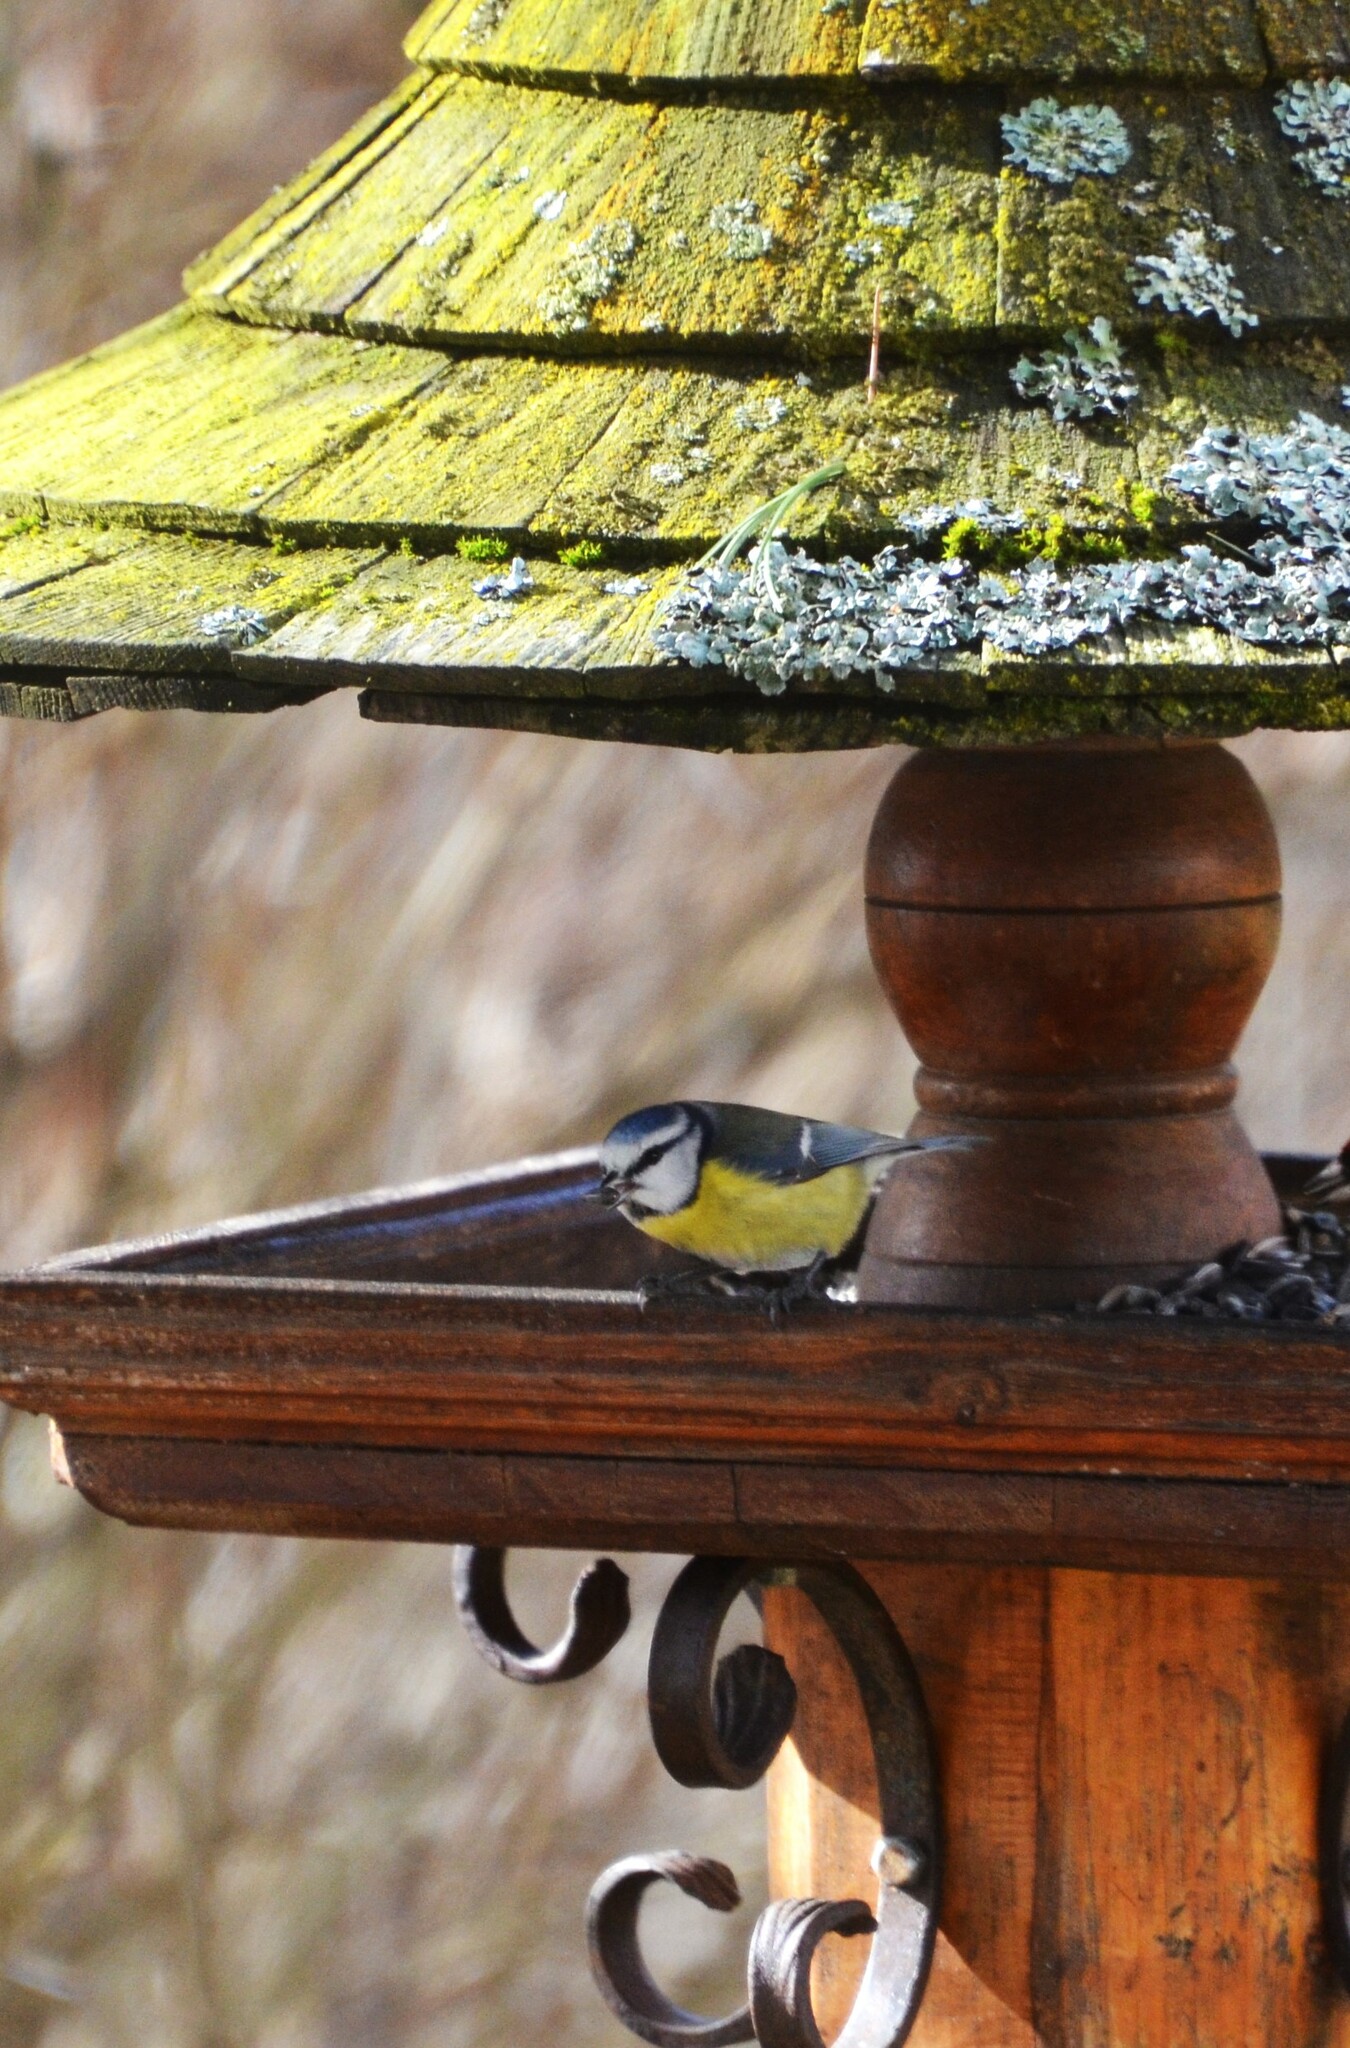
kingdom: Animalia
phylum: Chordata
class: Aves
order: Passeriformes
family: Paridae
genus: Cyanistes
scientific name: Cyanistes caeruleus
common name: Eurasian blue tit
